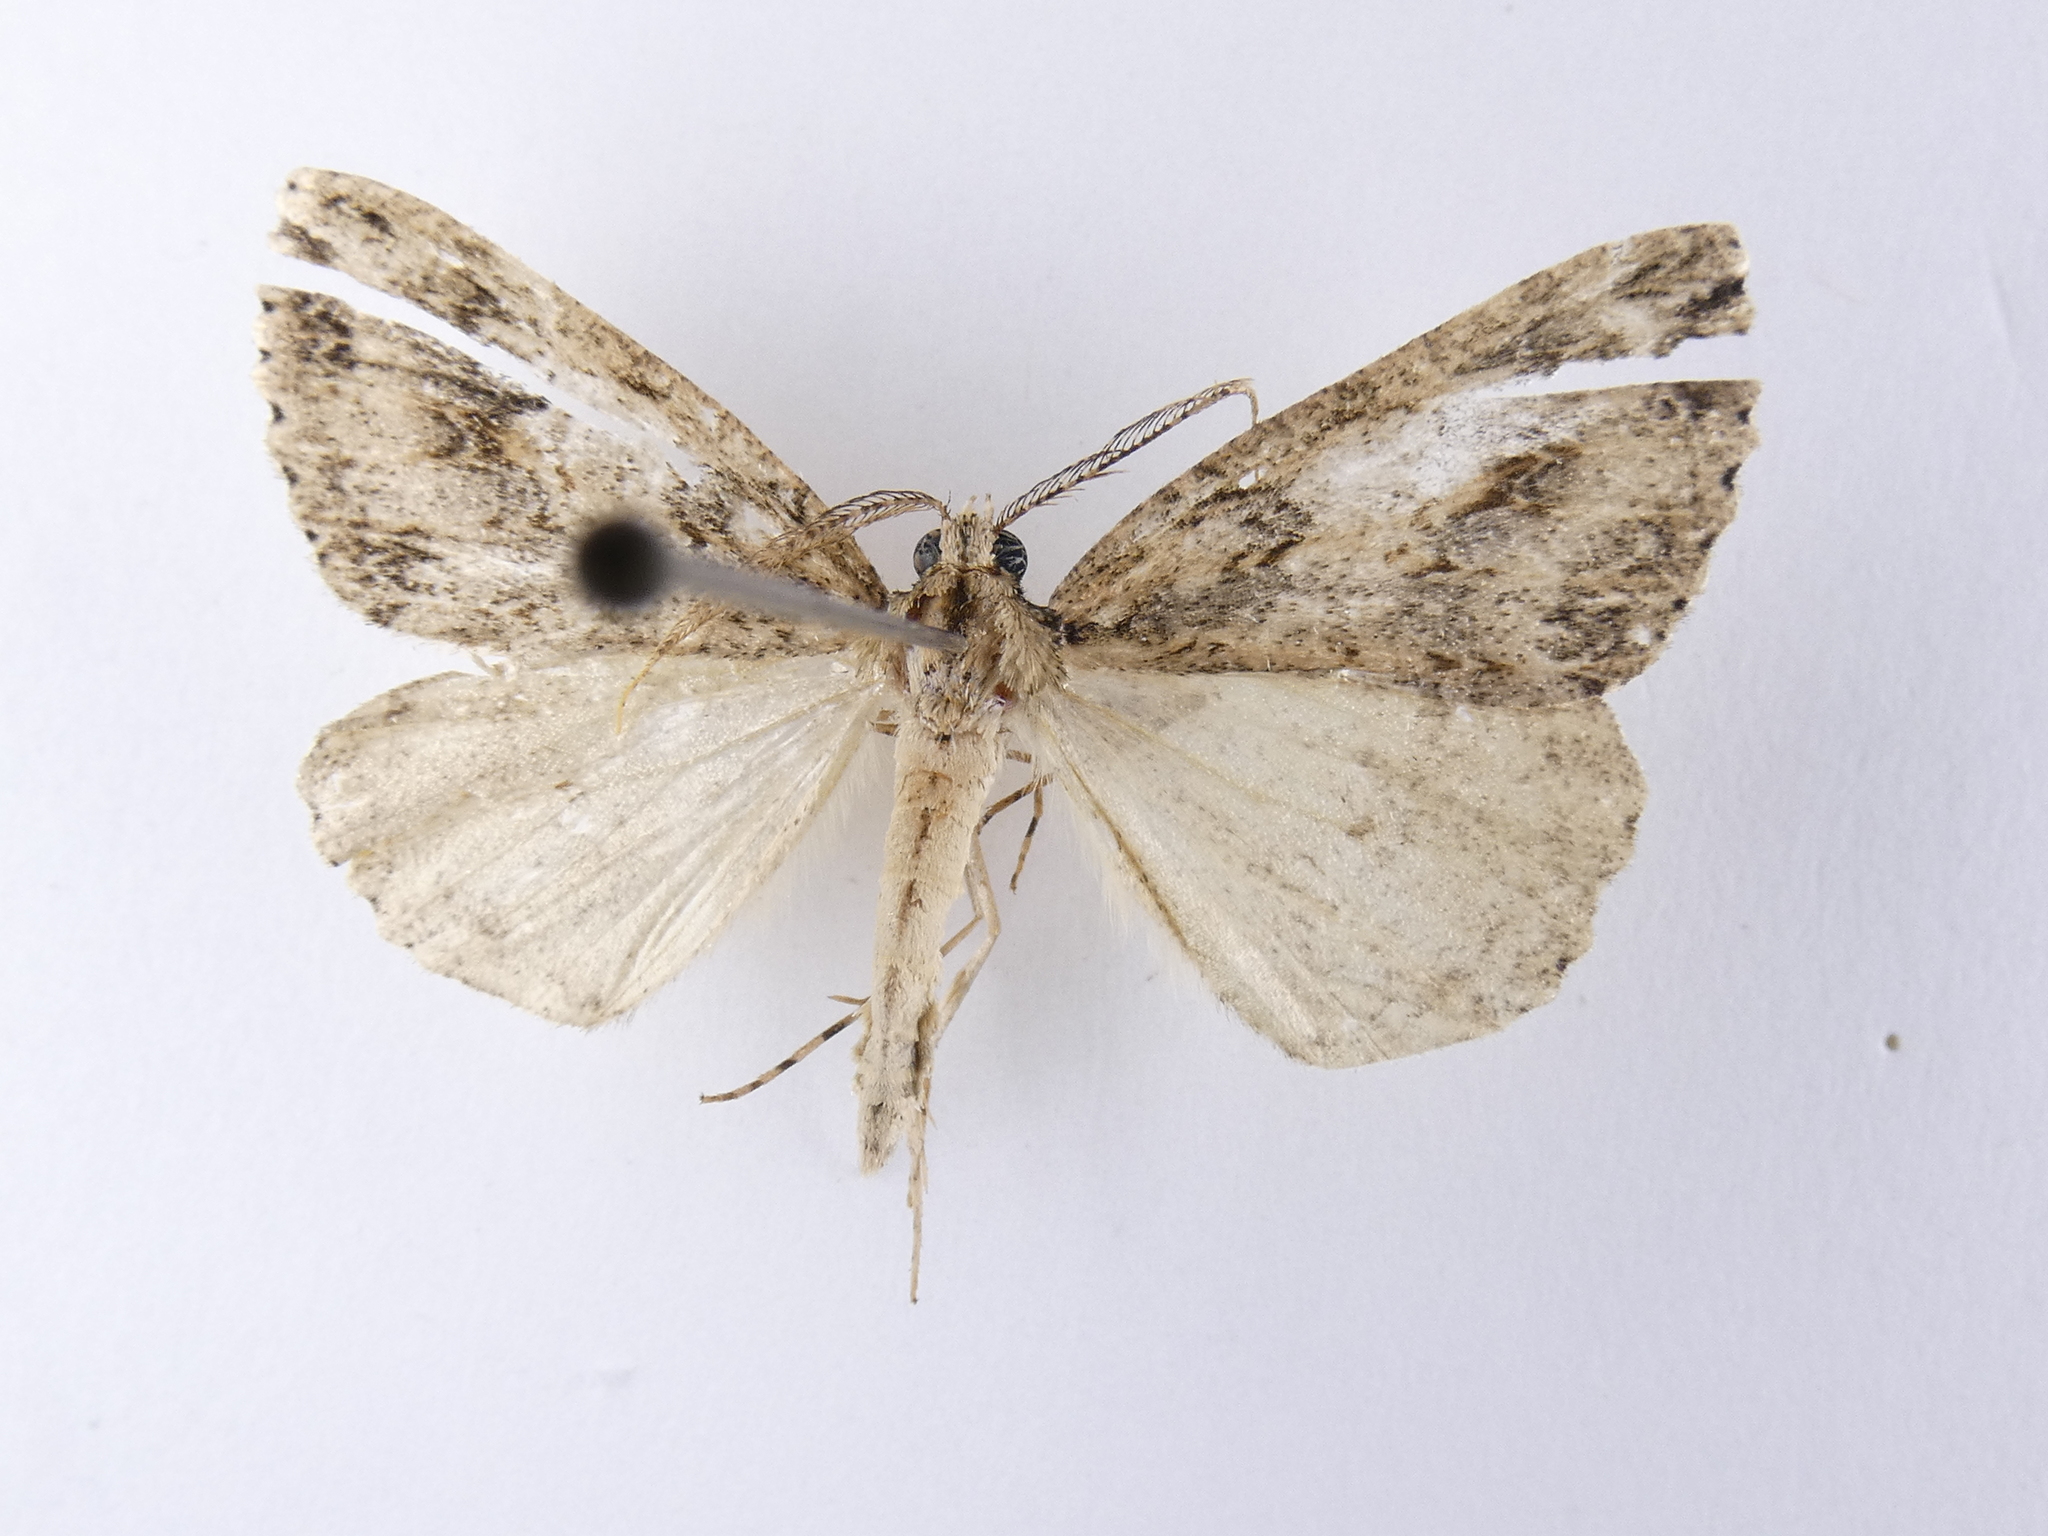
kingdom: Animalia
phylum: Arthropoda
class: Insecta
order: Lepidoptera
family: Geometridae
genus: Pseudocoremia
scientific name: Pseudocoremia rudisata
